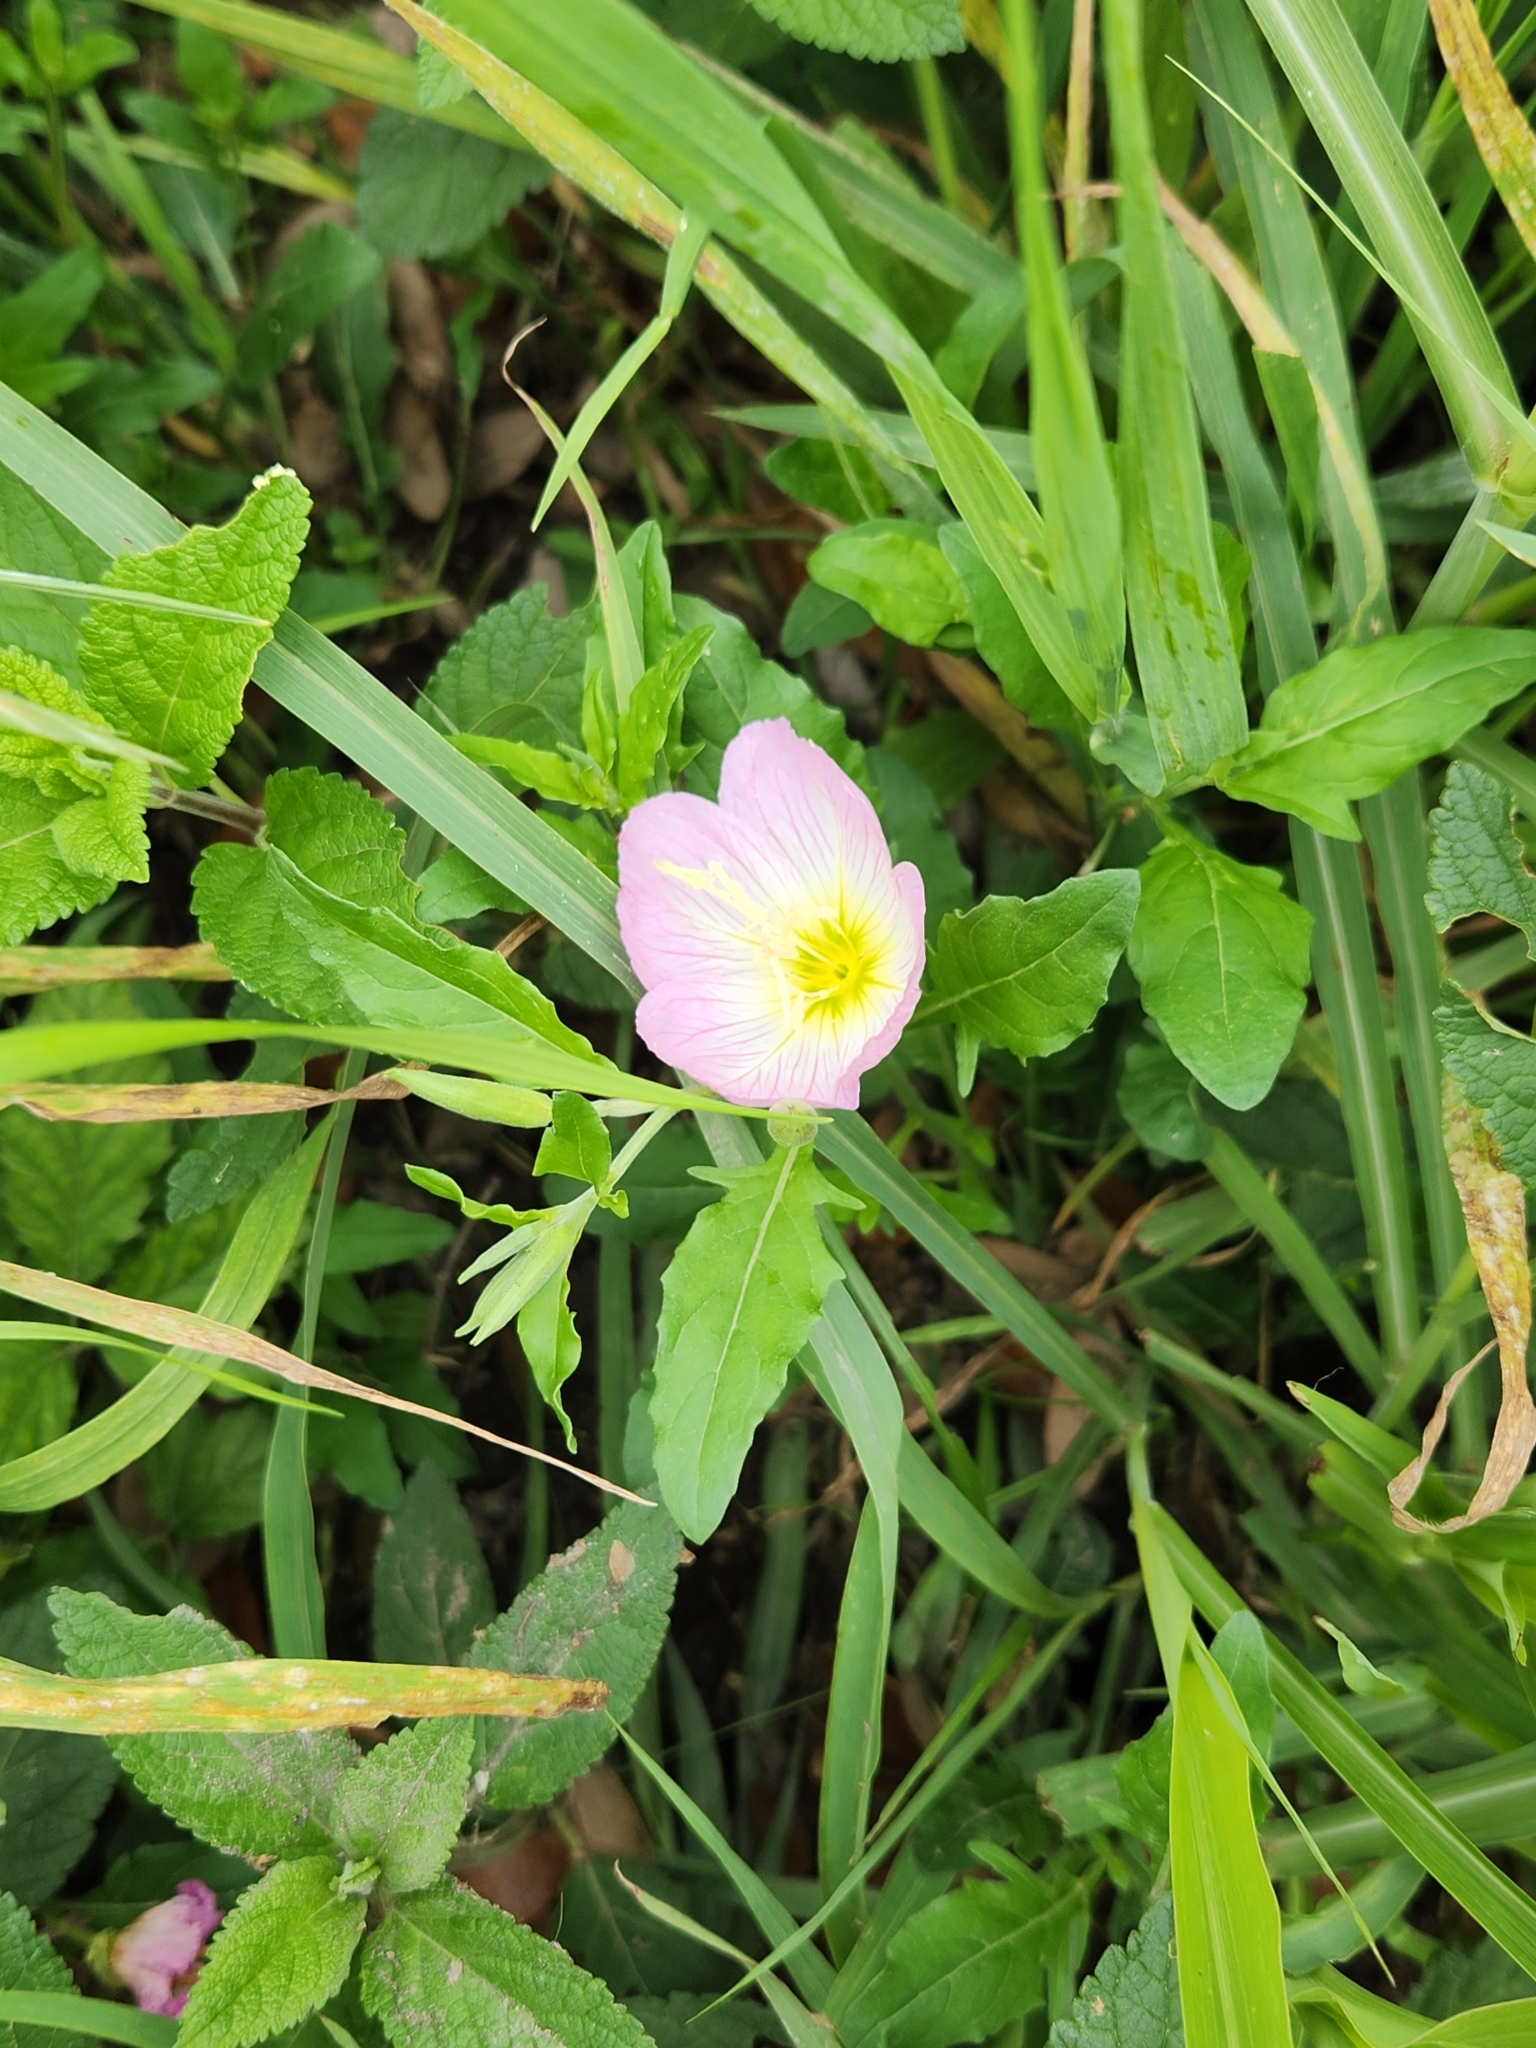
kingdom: Plantae
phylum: Tracheophyta
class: Magnoliopsida
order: Myrtales
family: Onagraceae
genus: Oenothera
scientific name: Oenothera speciosa
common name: White evening-primrose
